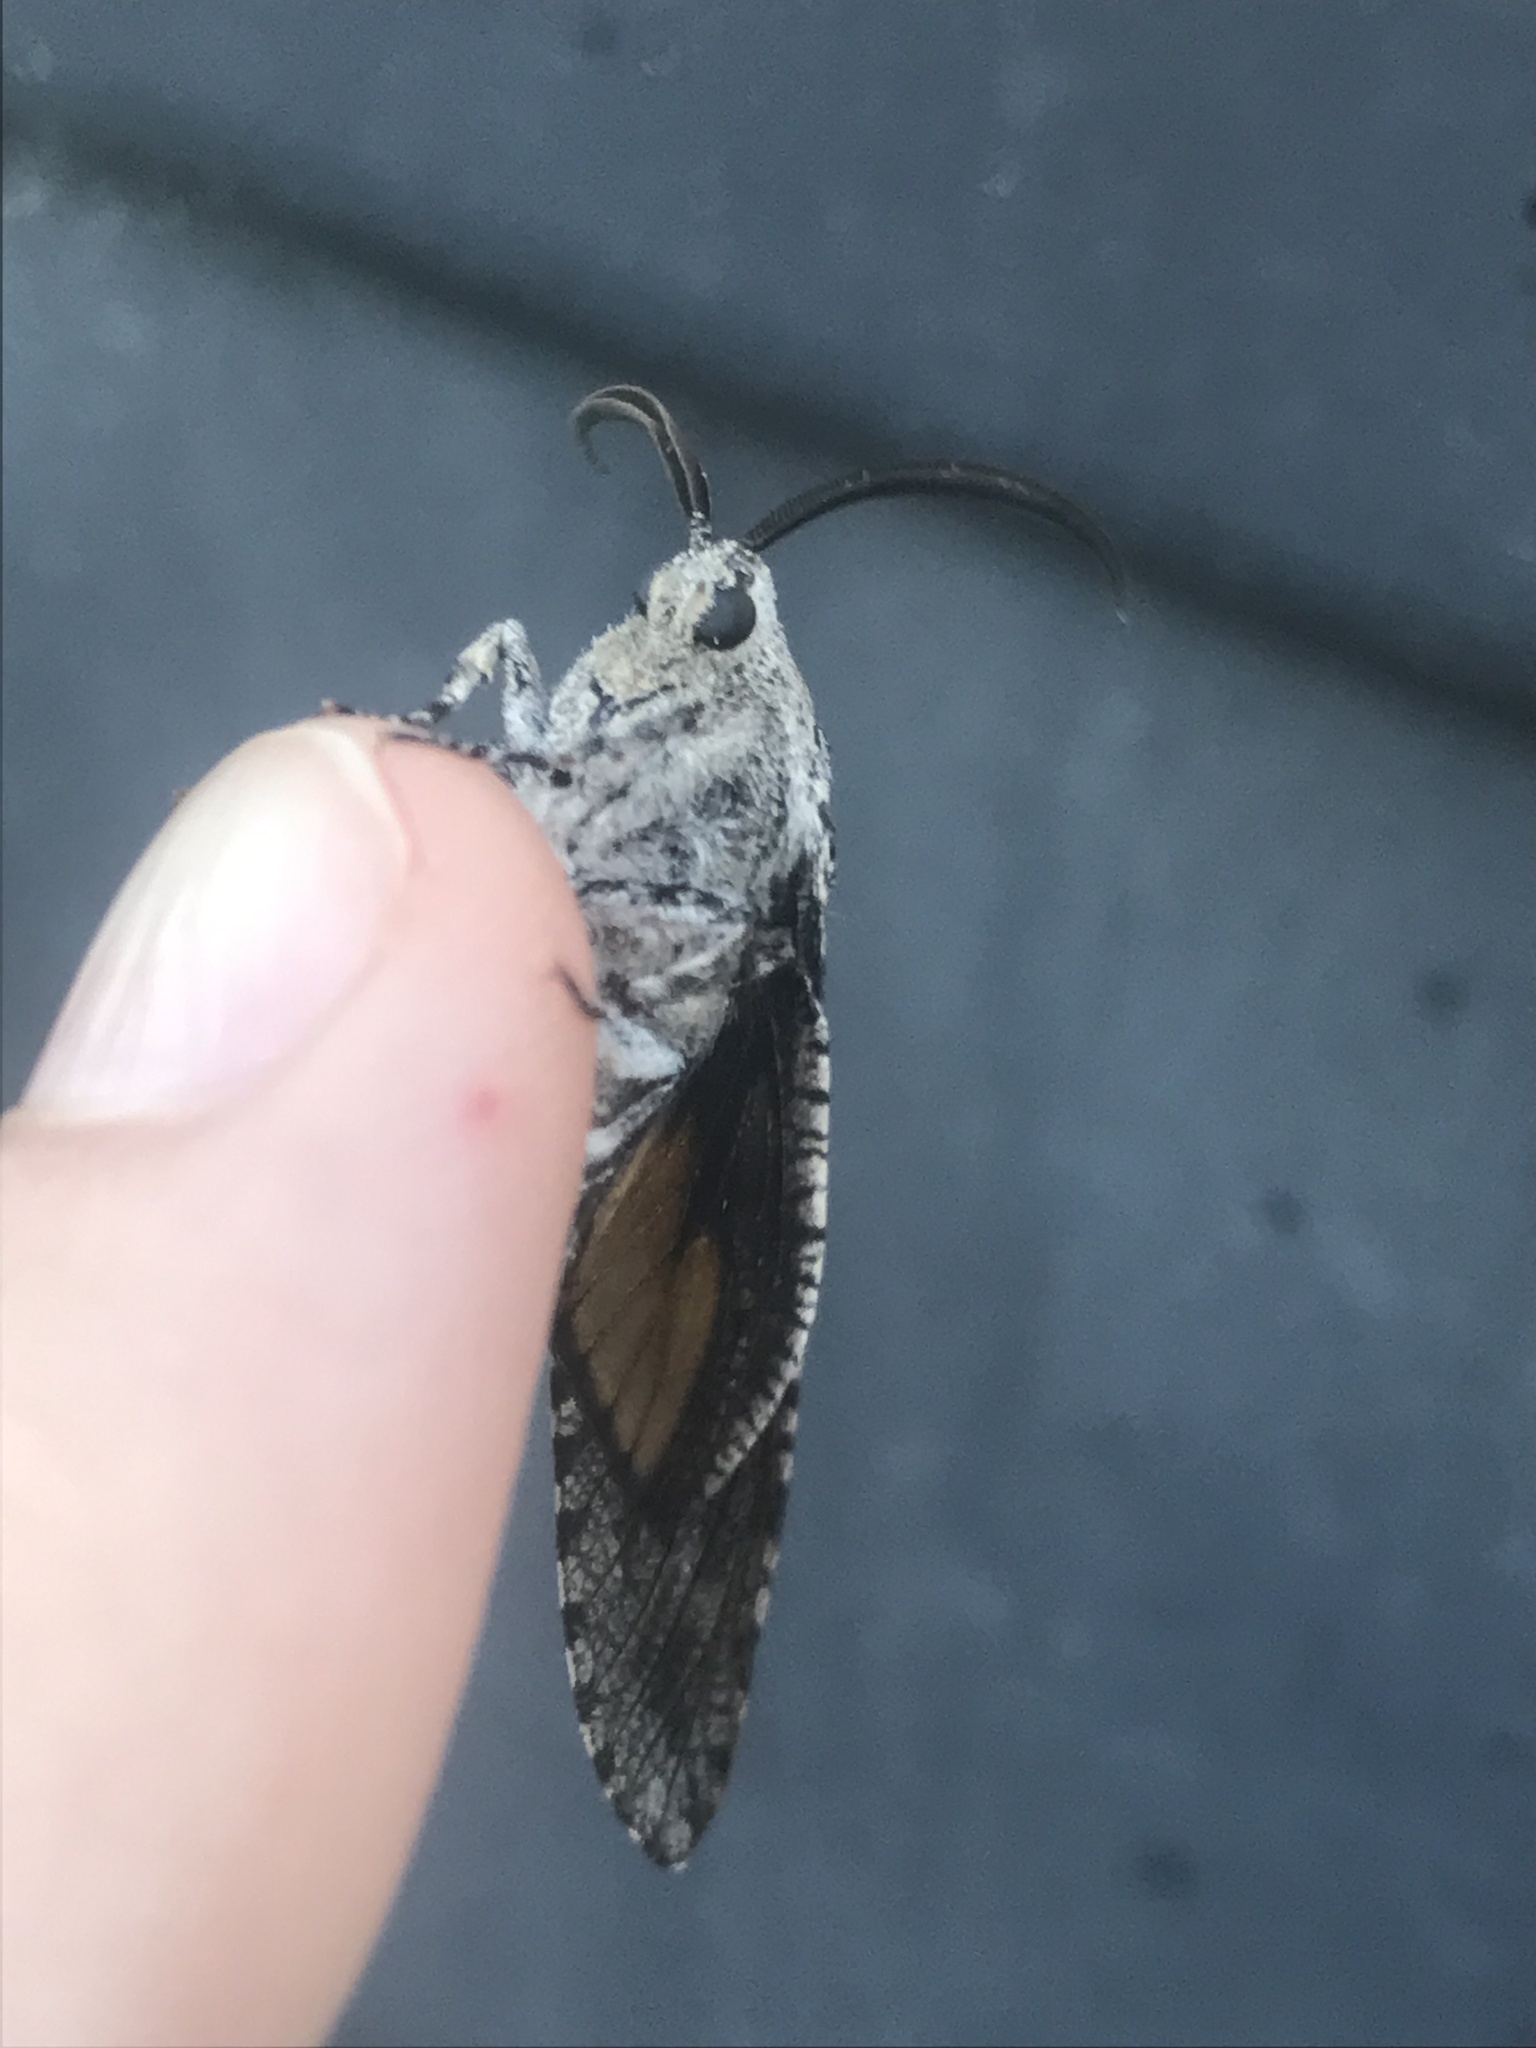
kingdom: Animalia
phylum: Arthropoda
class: Insecta
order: Lepidoptera
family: Cossidae
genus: Prionoxystus
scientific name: Prionoxystus robiniae
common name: Carpenterworm
